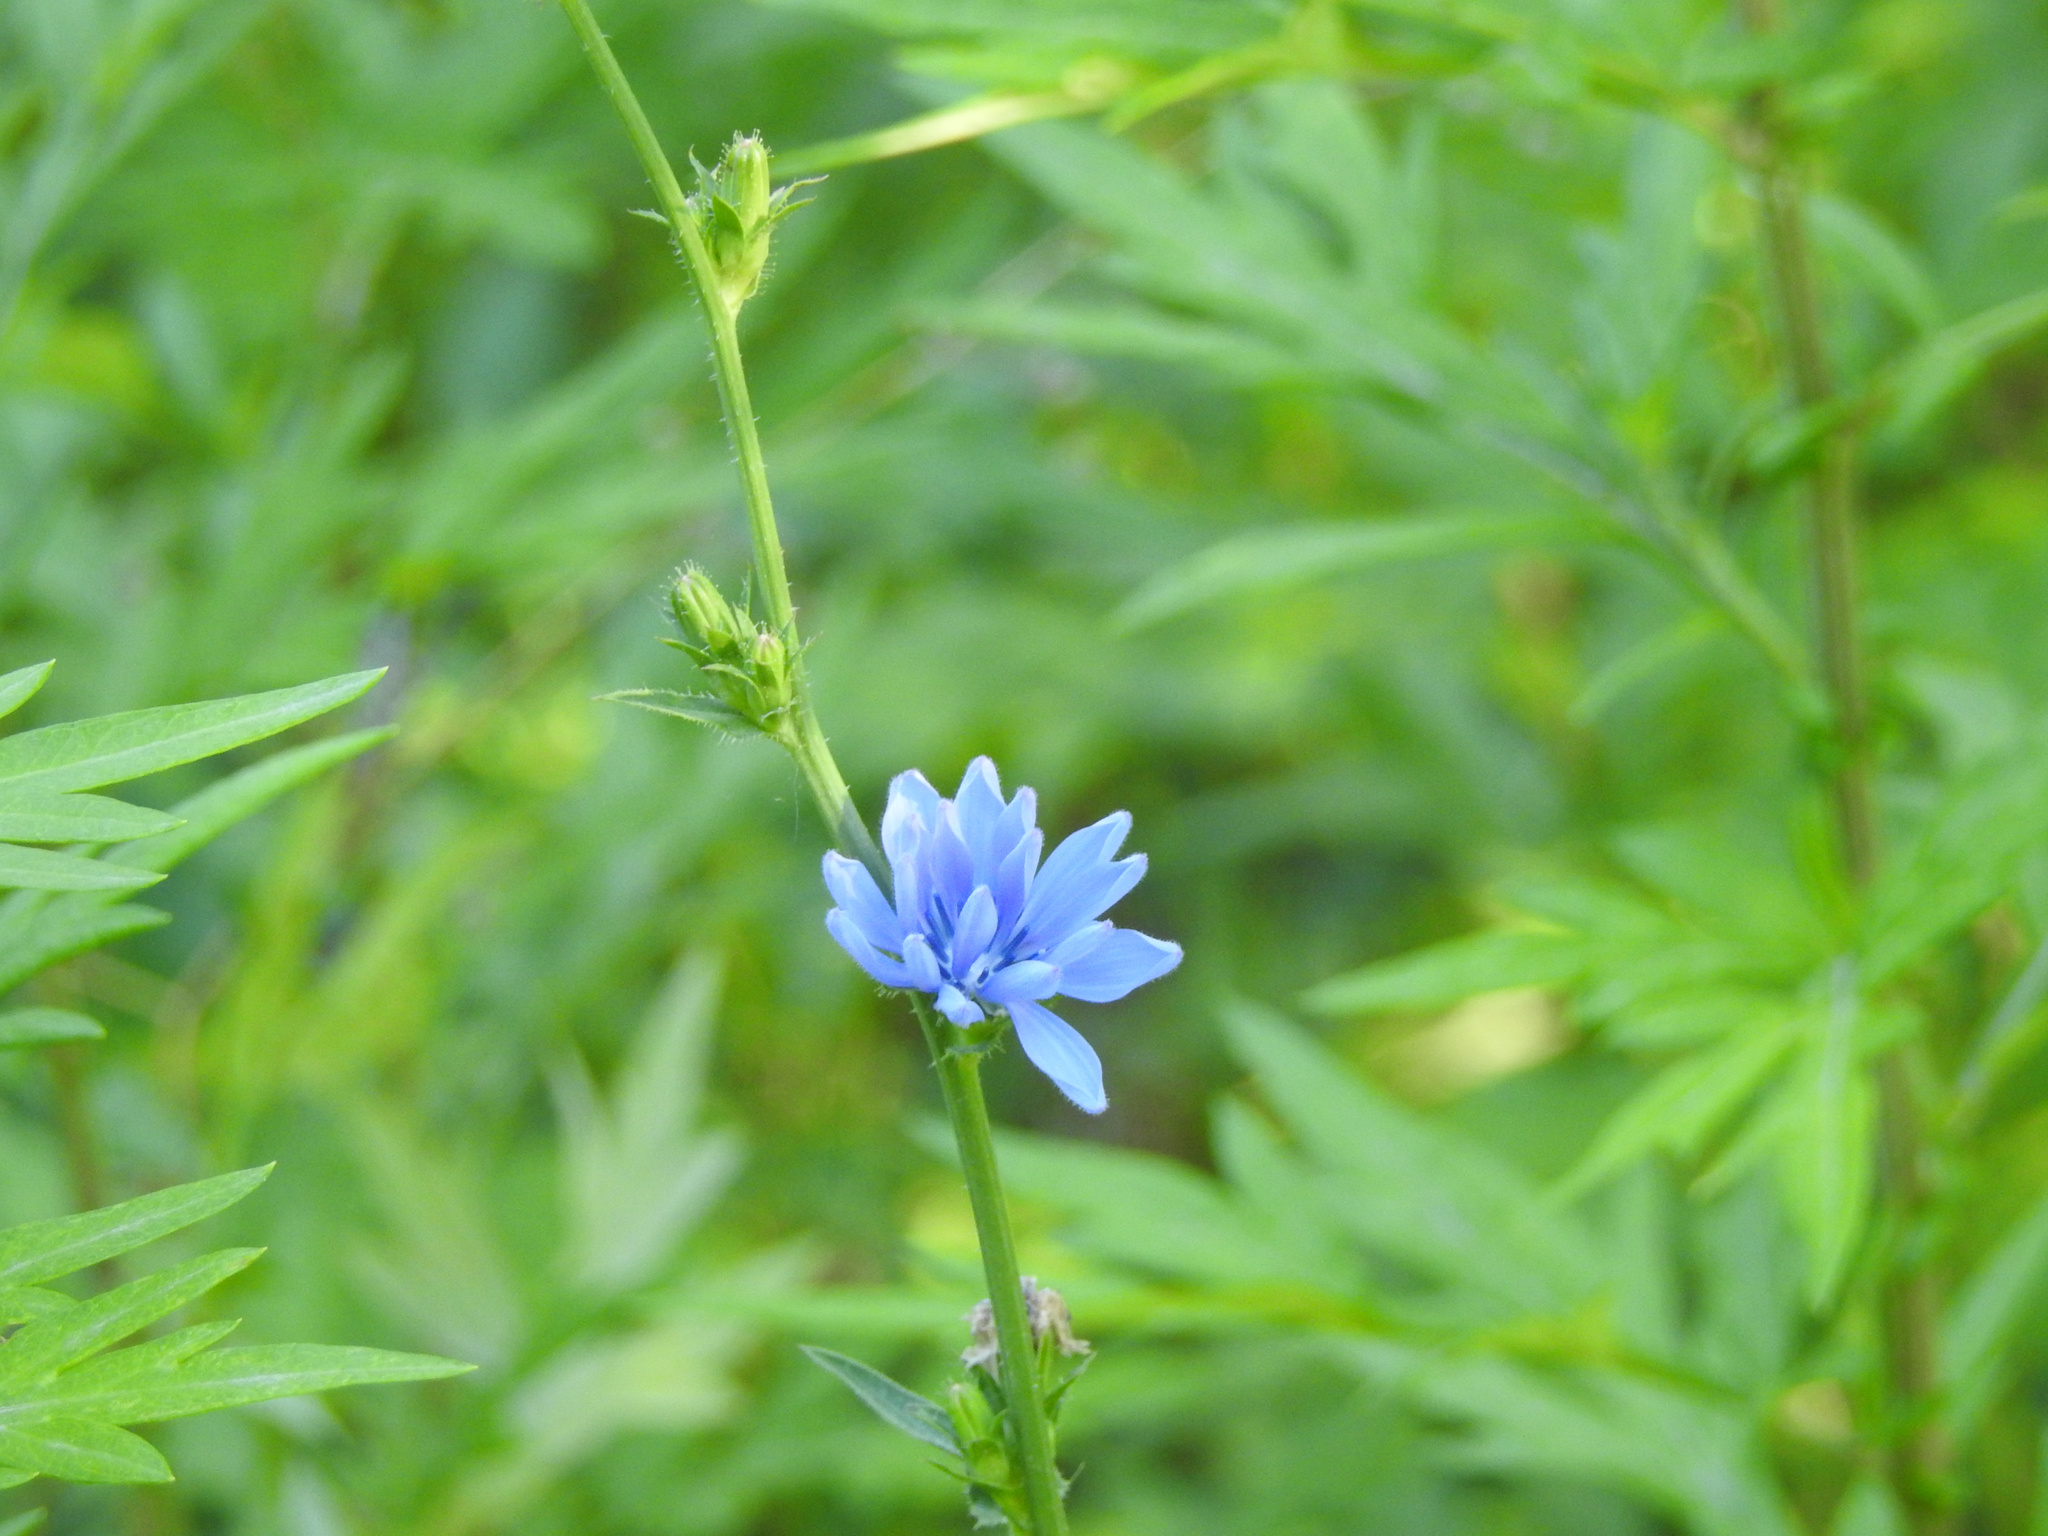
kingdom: Plantae
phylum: Tracheophyta
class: Magnoliopsida
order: Asterales
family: Asteraceae
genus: Cichorium
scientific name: Cichorium intybus
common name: Chicory
